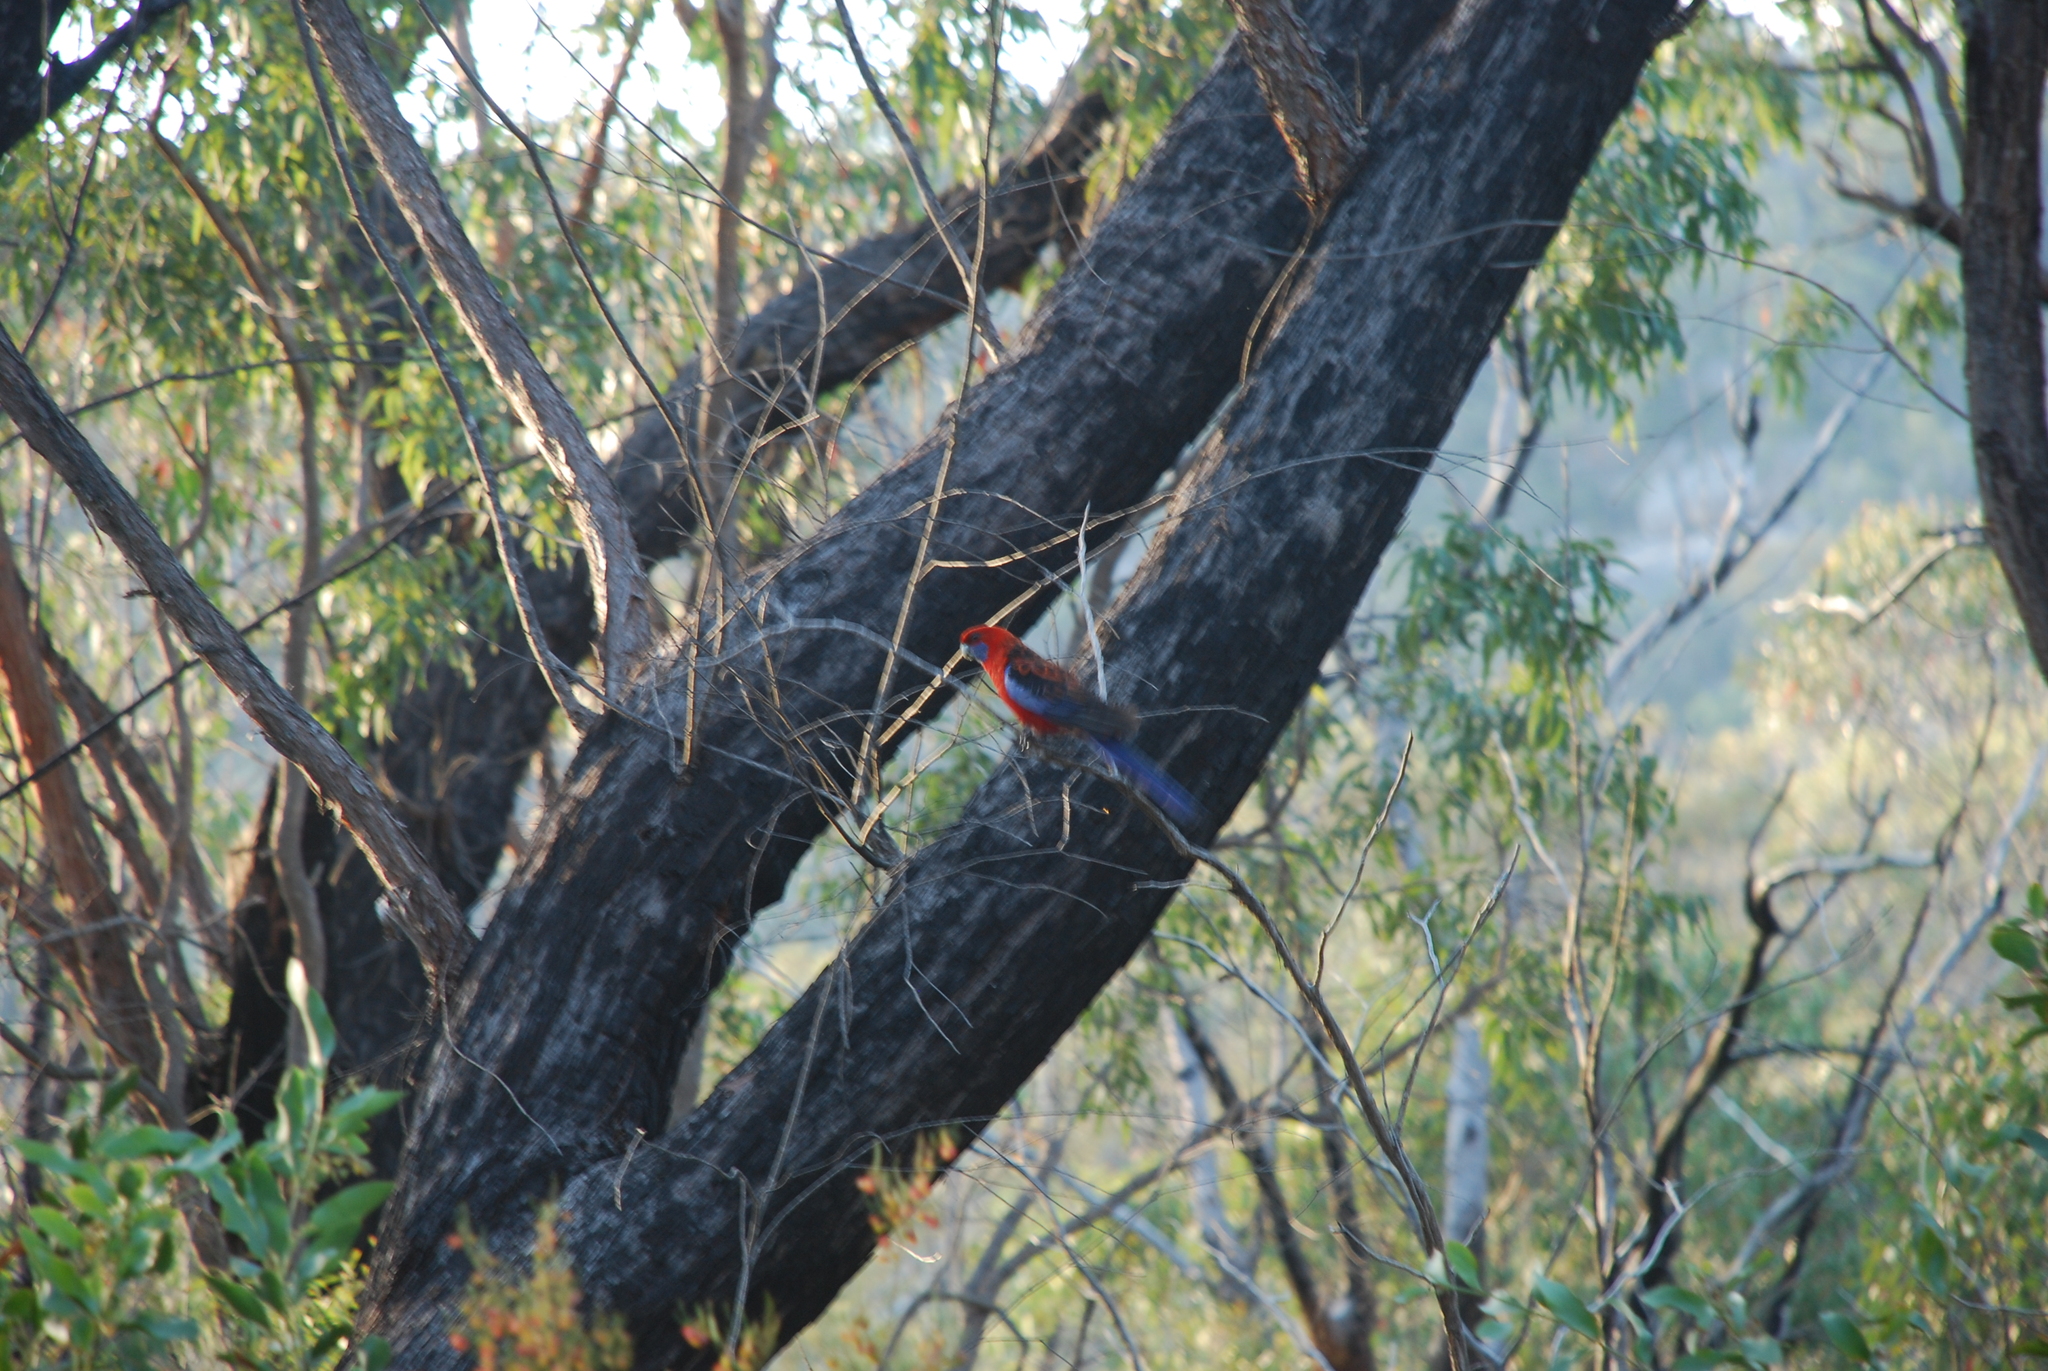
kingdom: Animalia
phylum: Chordata
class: Aves
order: Psittaciformes
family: Psittacidae
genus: Platycercus
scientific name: Platycercus elegans
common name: Crimson rosella
